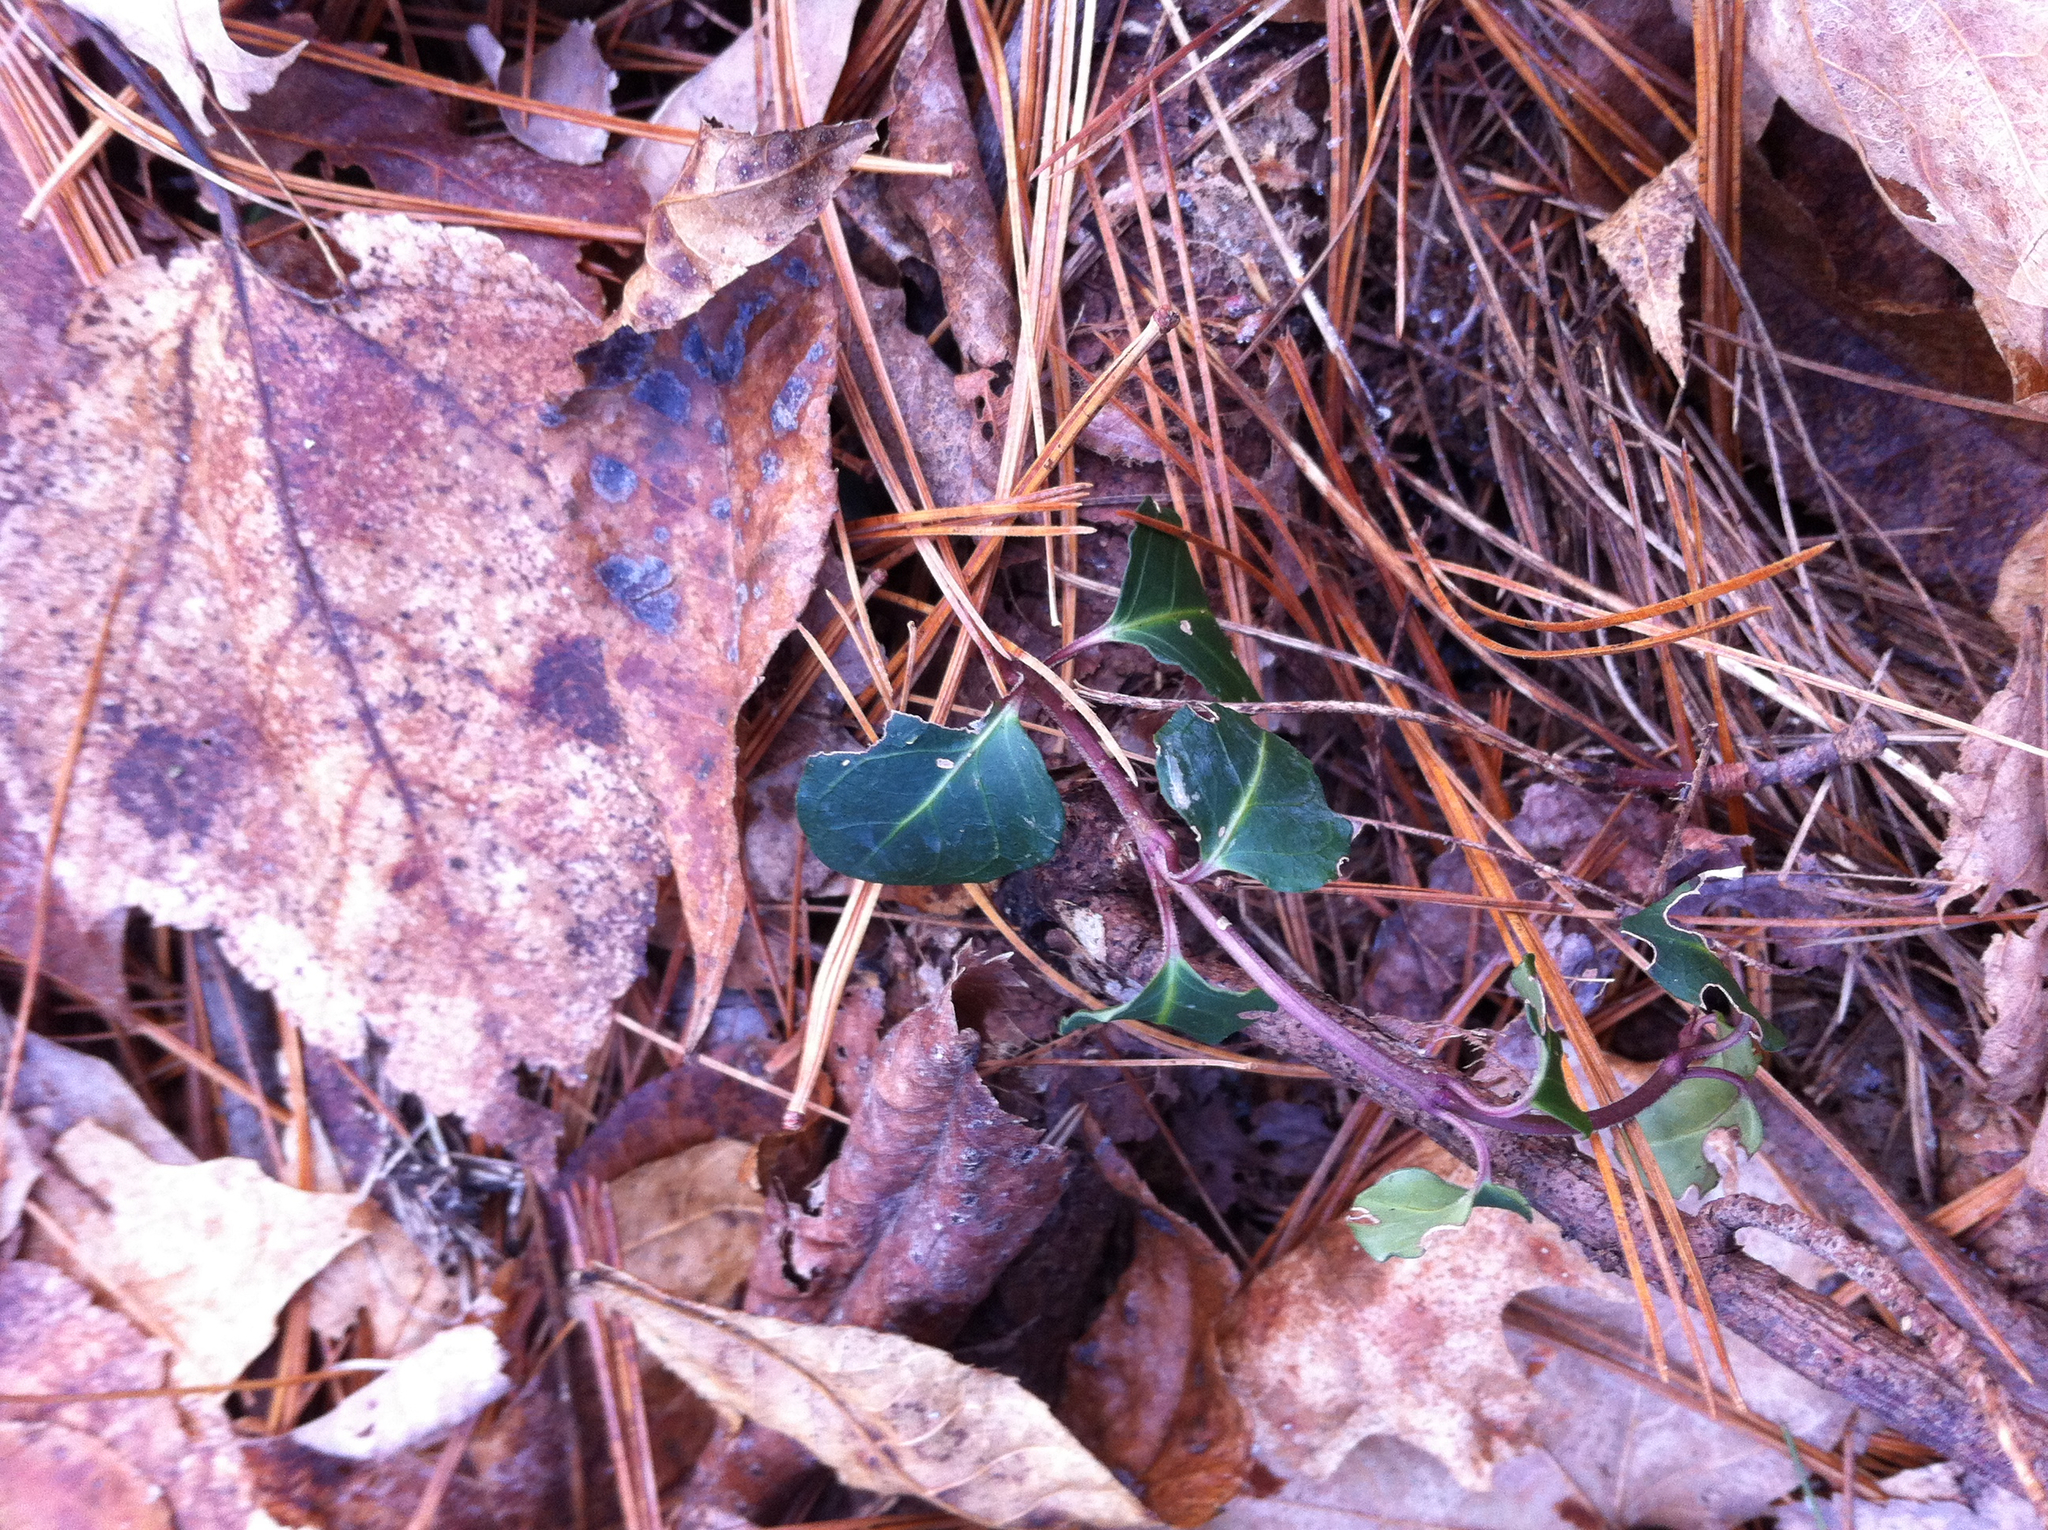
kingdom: Plantae
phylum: Tracheophyta
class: Magnoliopsida
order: Gentianales
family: Rubiaceae
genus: Mitchella
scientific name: Mitchella repens
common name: Partridge-berry
